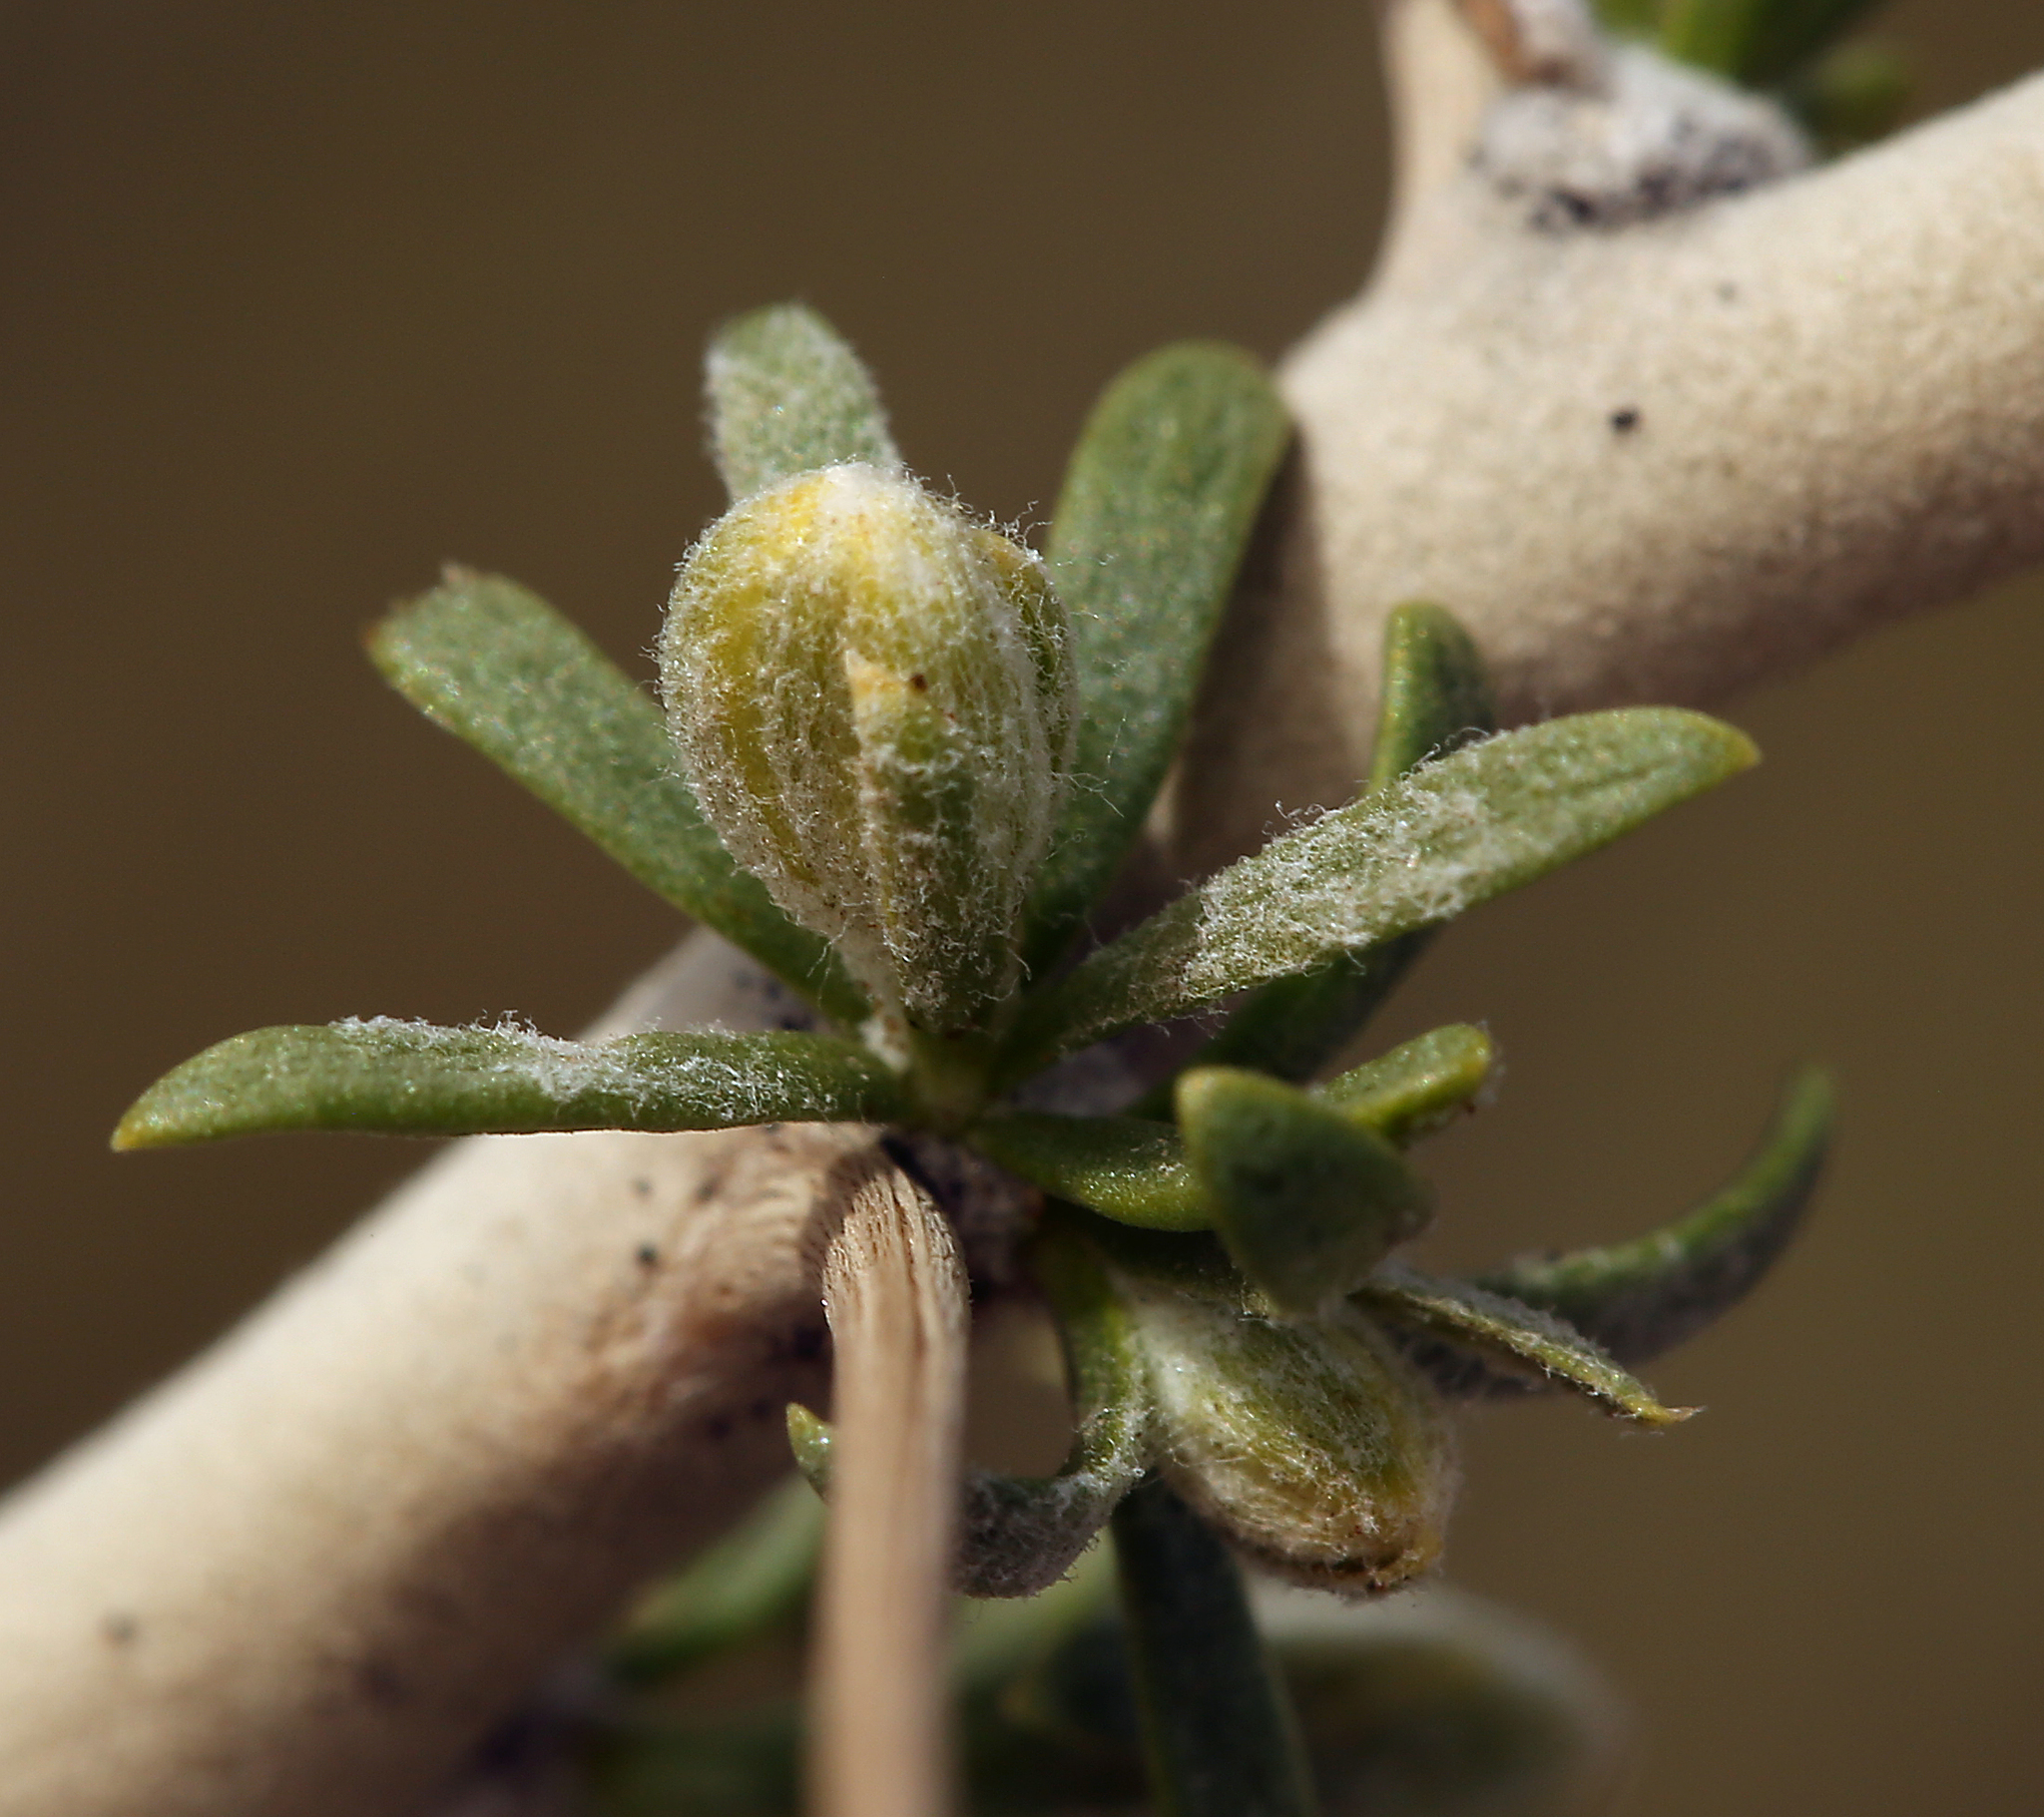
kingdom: Plantae
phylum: Tracheophyta
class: Magnoliopsida
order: Asterales
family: Asteraceae
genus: Tetradymia
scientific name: Tetradymia axillaris
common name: Long-spine horsebrush
